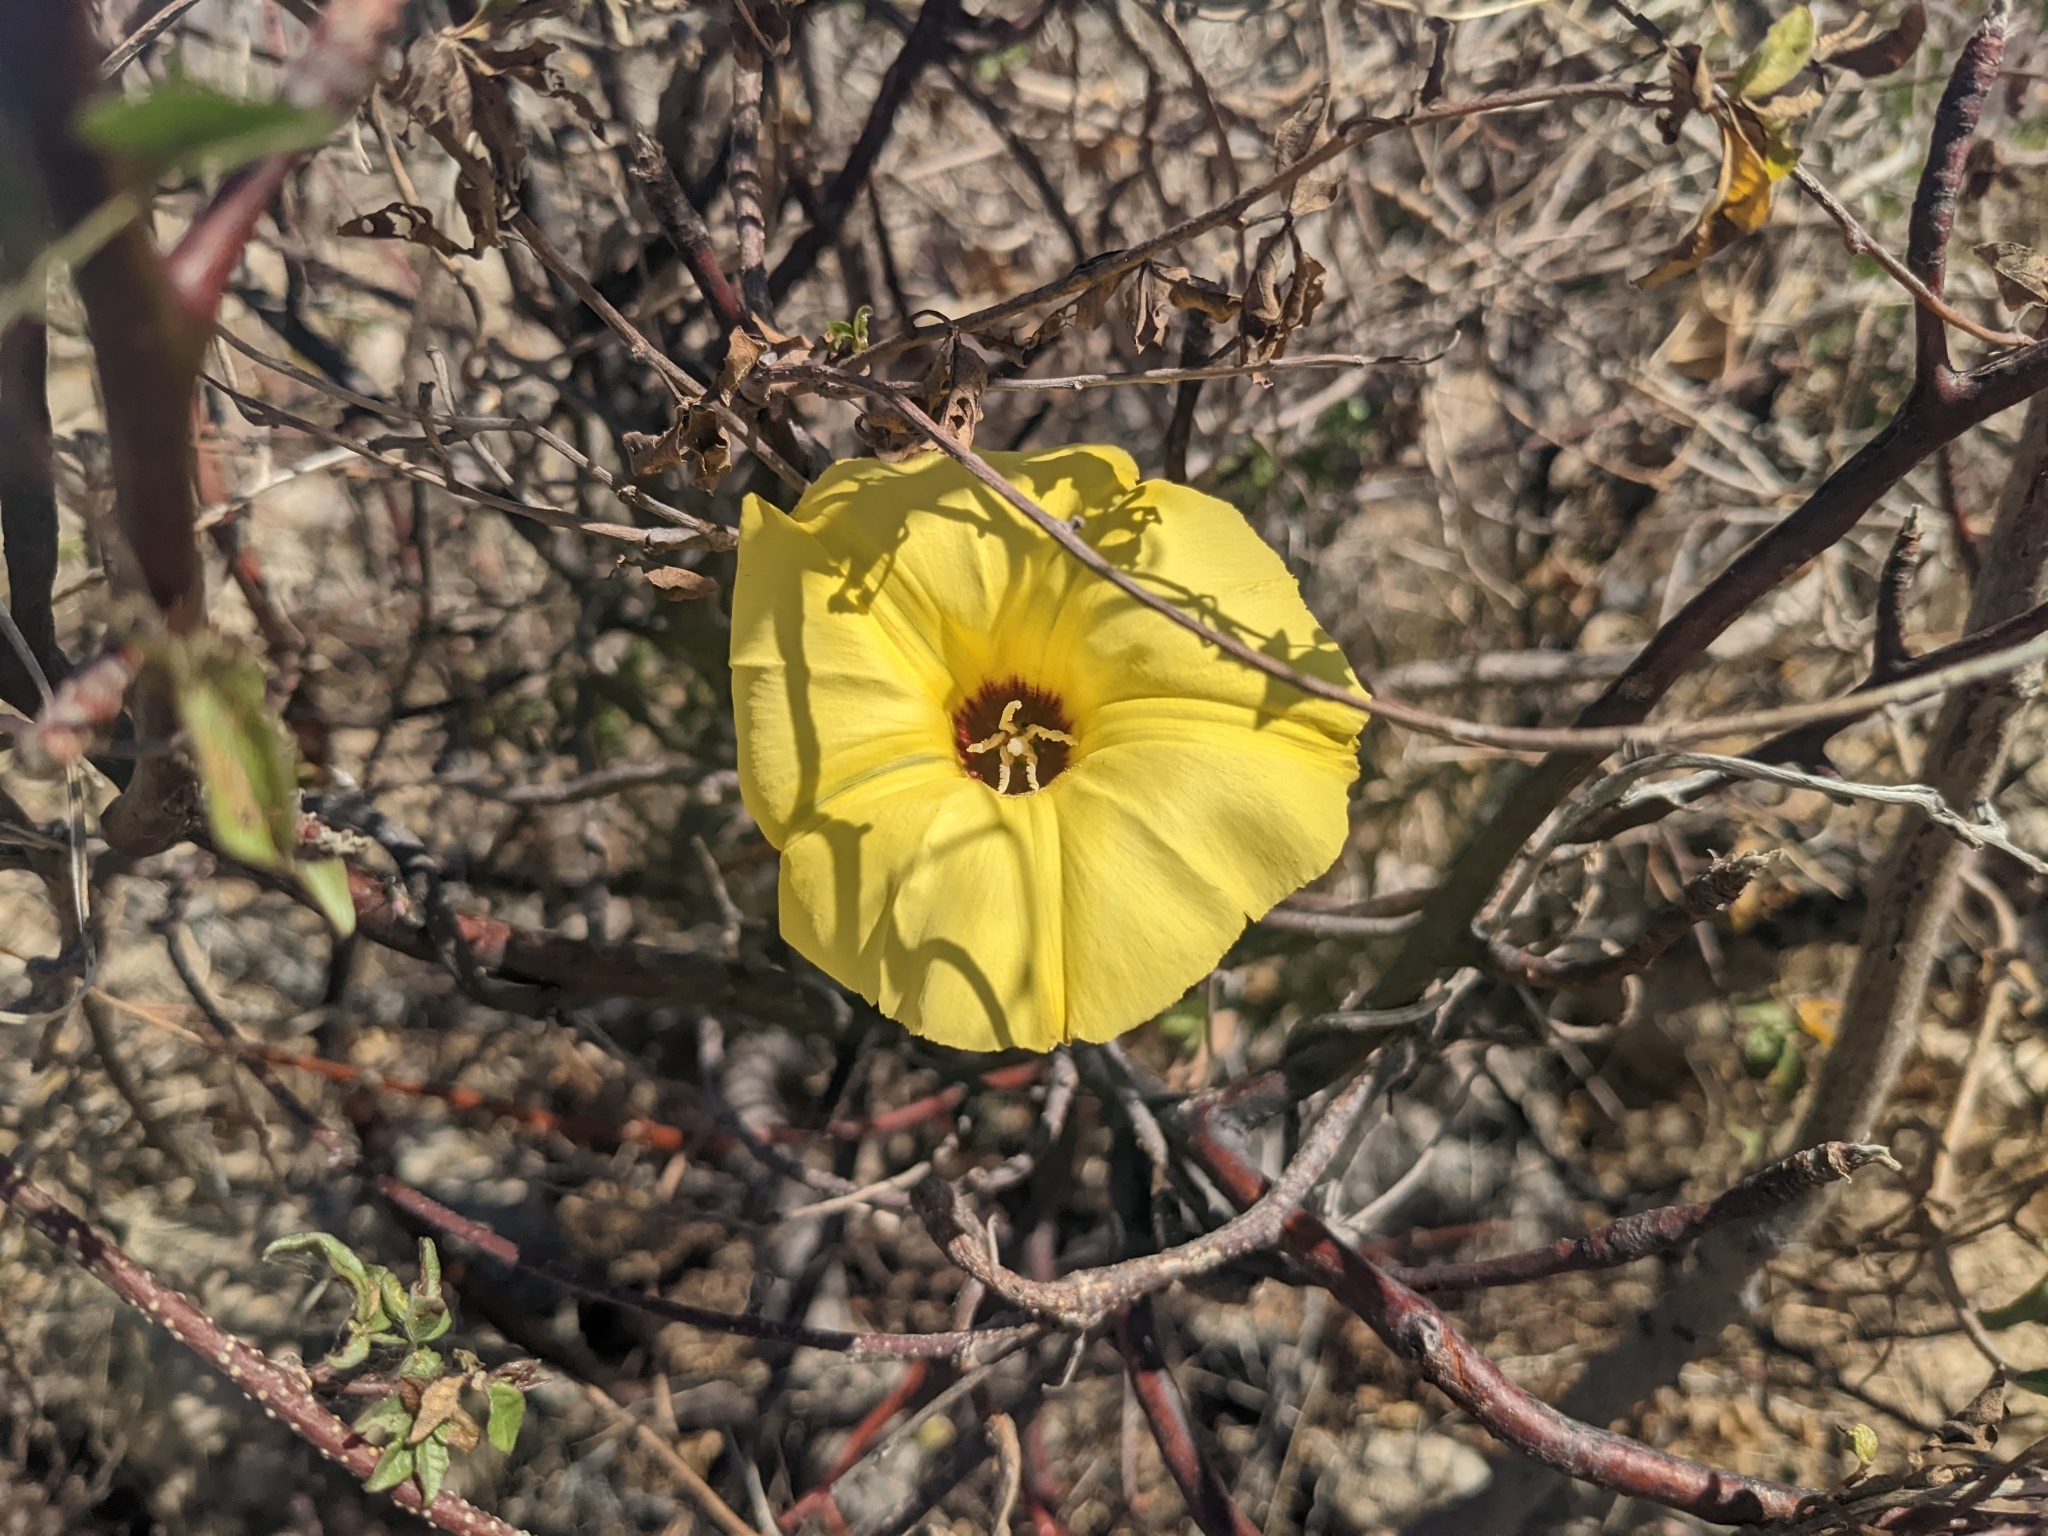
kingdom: Plantae
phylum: Tracheophyta
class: Magnoliopsida
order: Solanales
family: Convolvulaceae
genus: Distimake
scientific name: Distimake aureus
